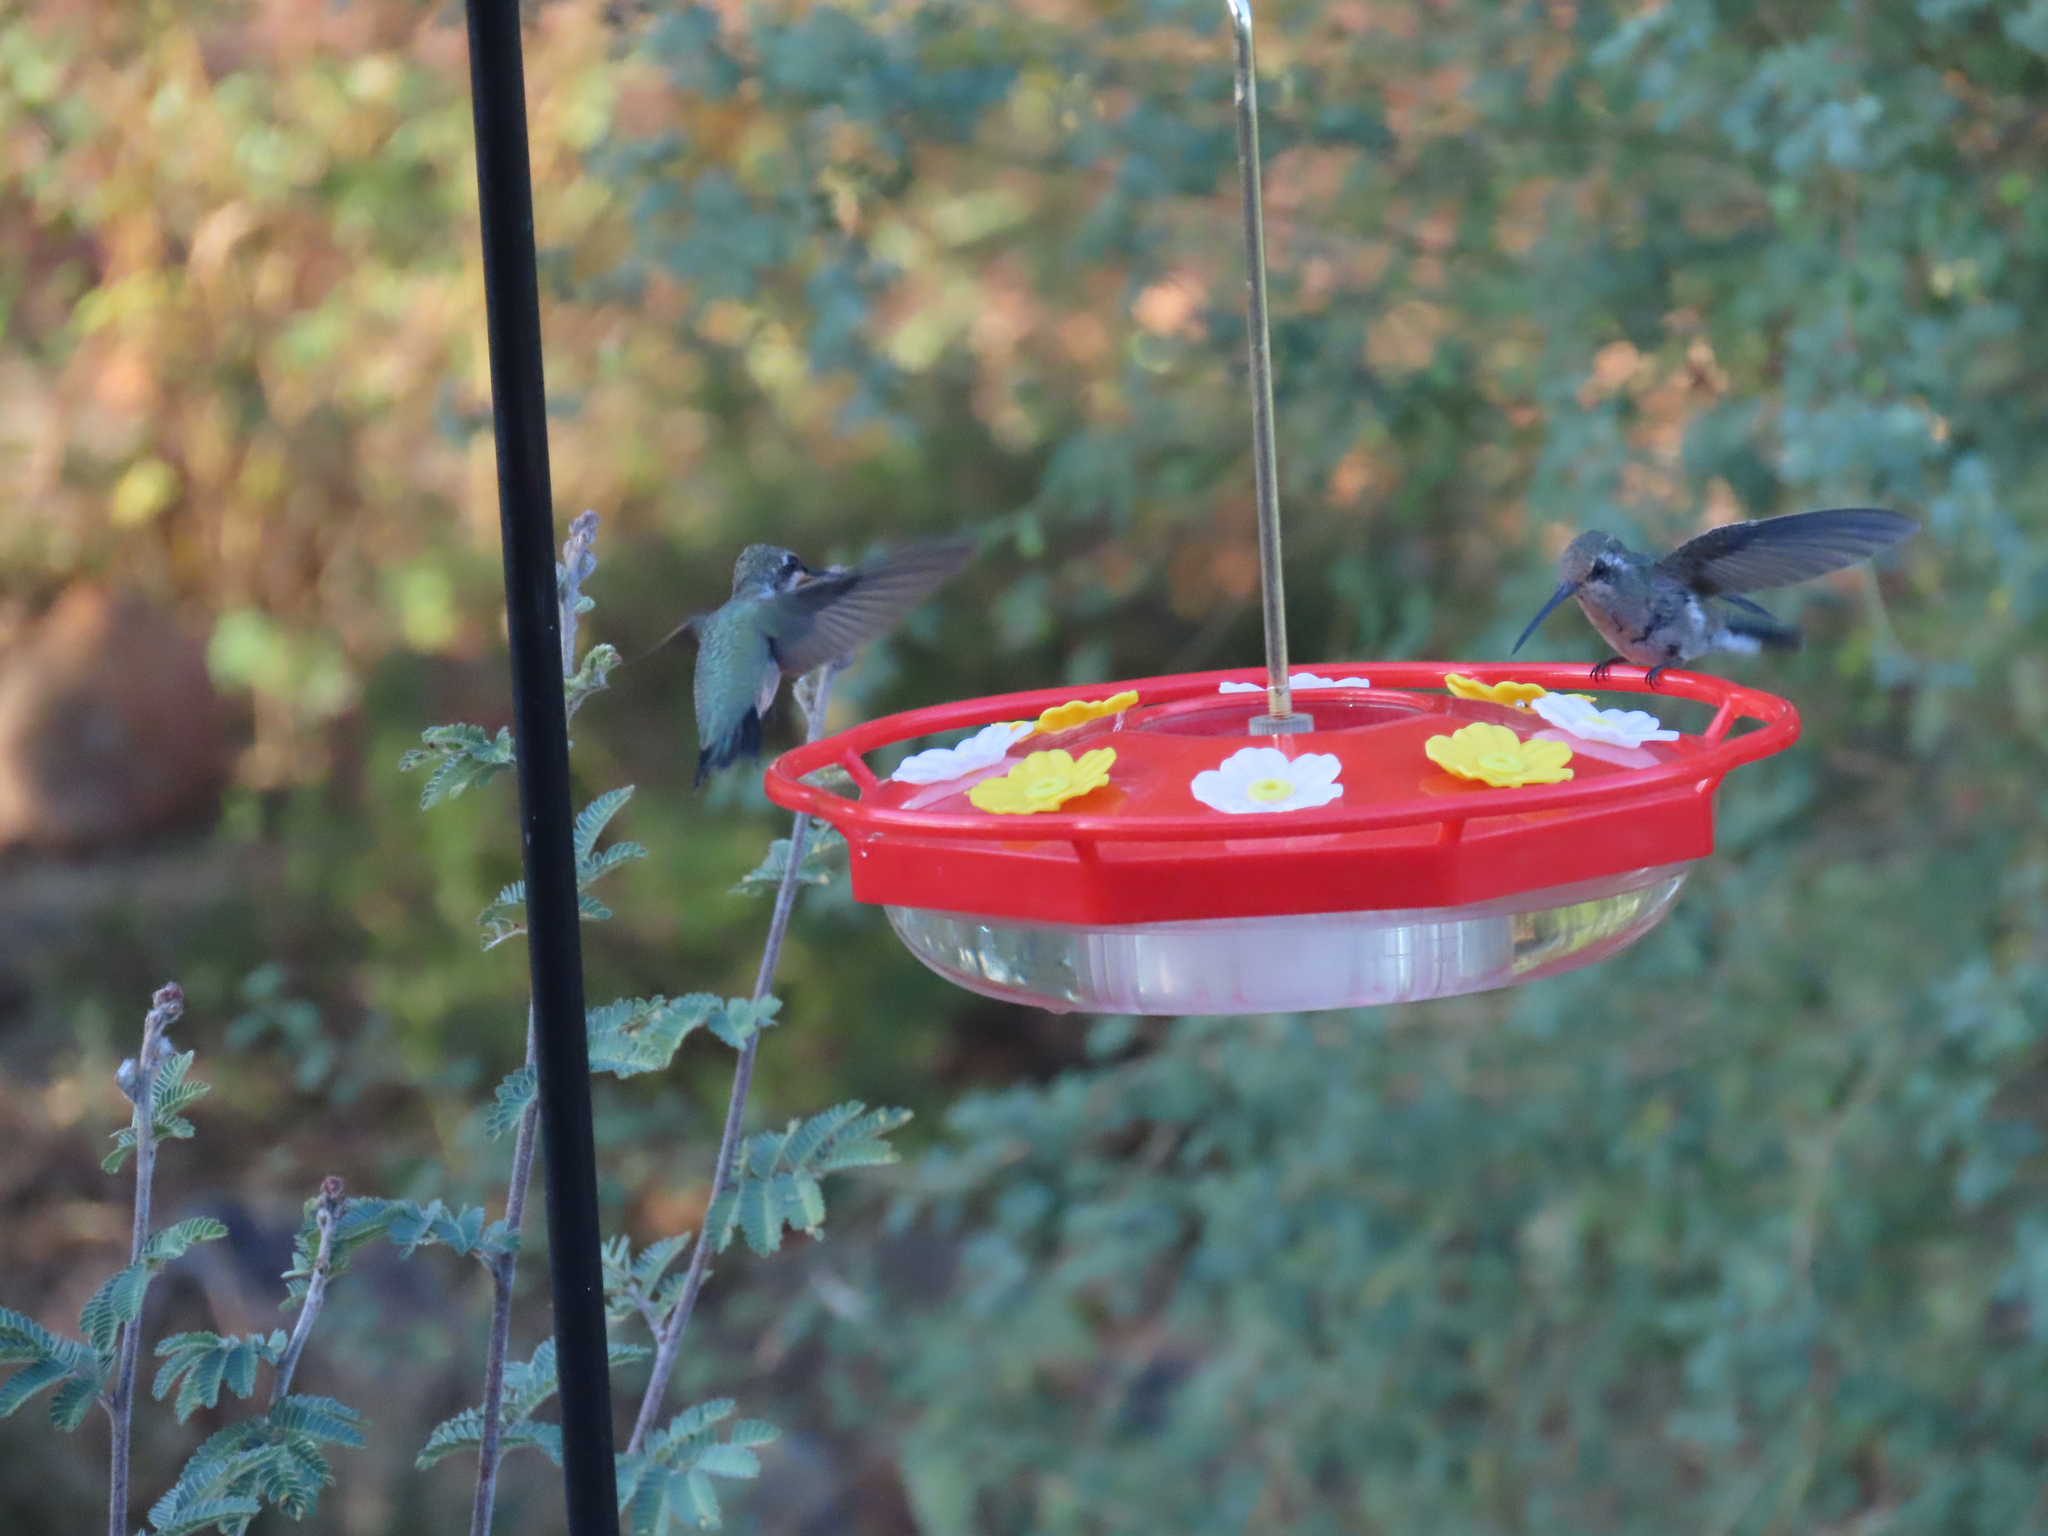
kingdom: Animalia
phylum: Chordata
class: Aves
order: Apodiformes
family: Trochilidae
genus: Cynanthus
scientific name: Cynanthus latirostris
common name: Broad-billed hummingbird
